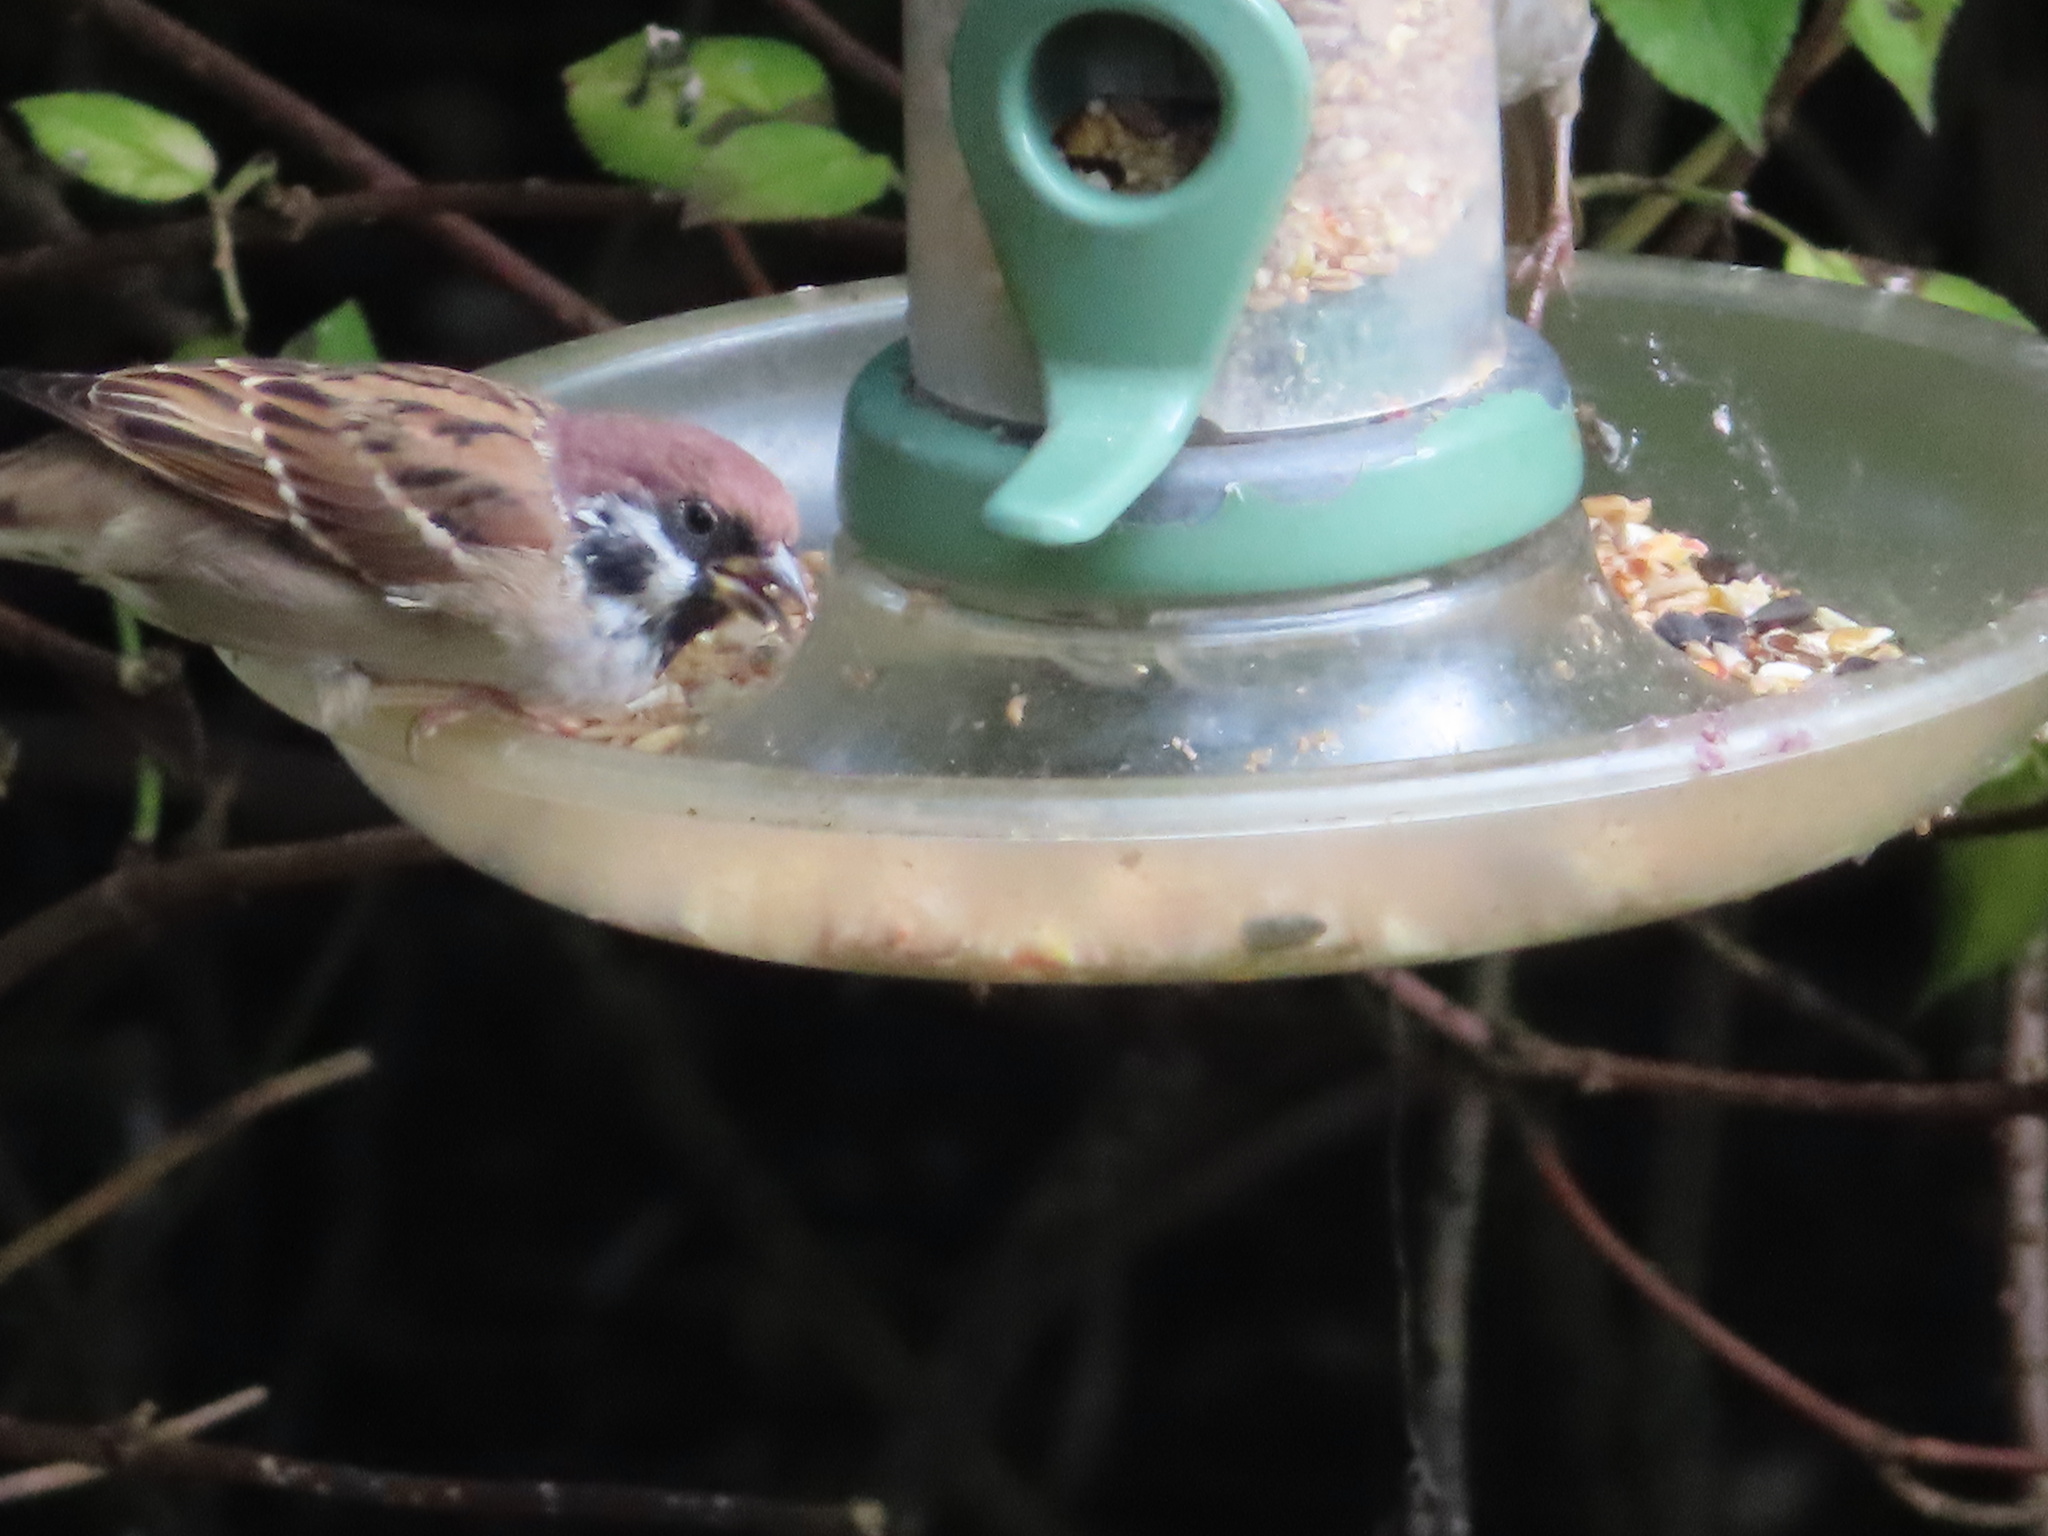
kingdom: Animalia
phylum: Chordata
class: Aves
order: Passeriformes
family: Passeridae
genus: Passer
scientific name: Passer montanus
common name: Eurasian tree sparrow
